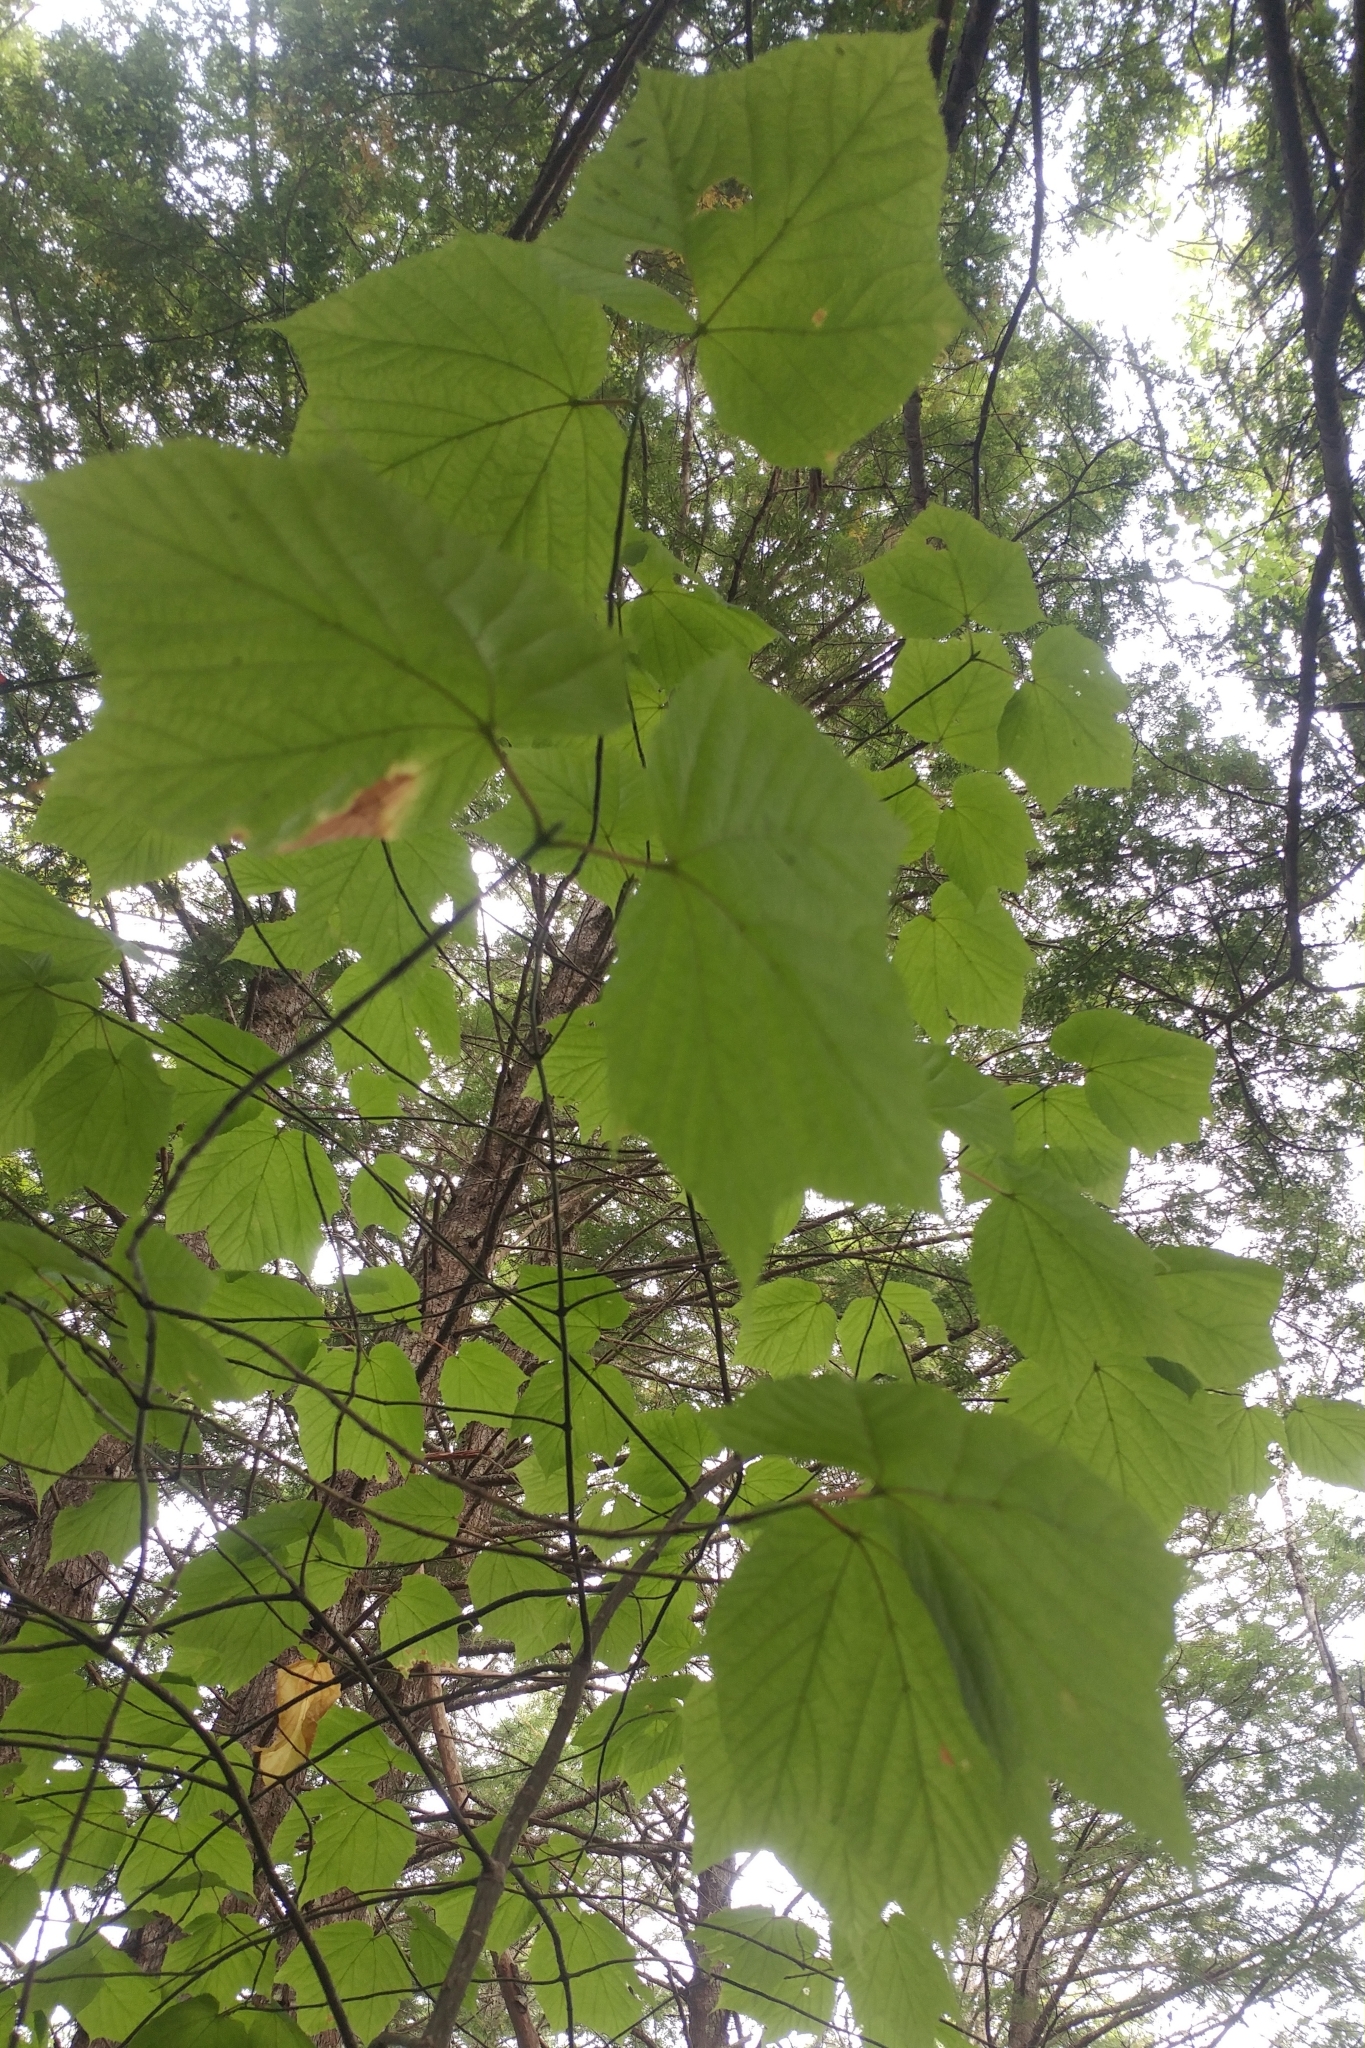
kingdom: Plantae
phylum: Tracheophyta
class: Magnoliopsida
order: Sapindales
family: Sapindaceae
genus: Acer
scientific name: Acer pensylvanicum
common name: Moosewood
